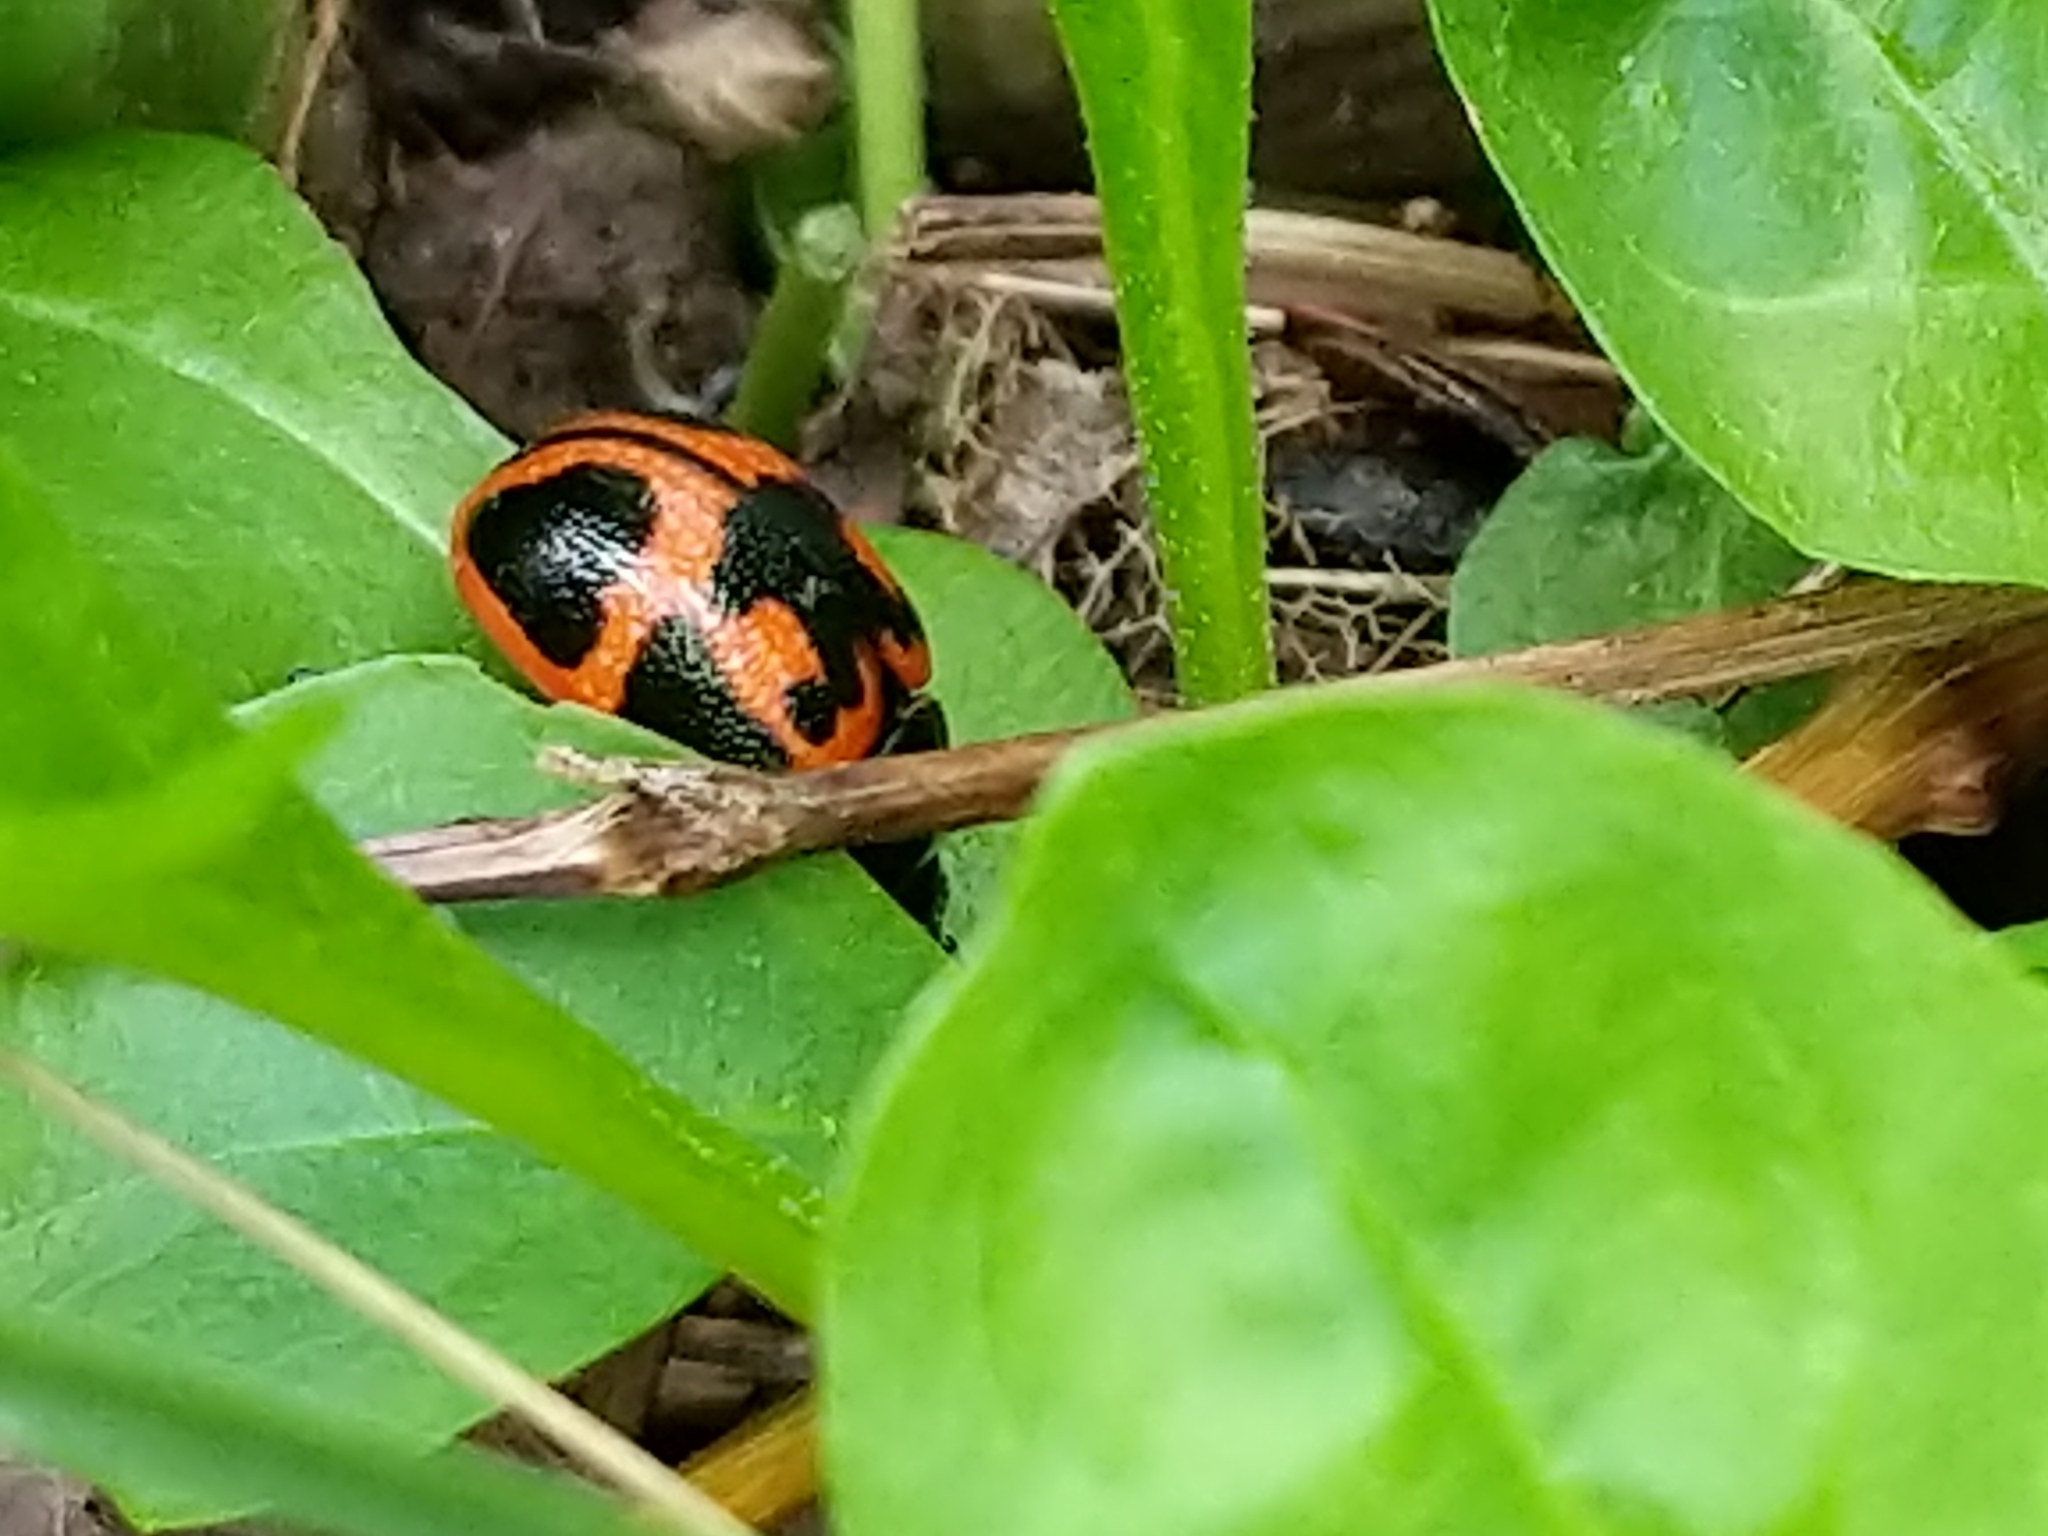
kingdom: Animalia
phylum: Arthropoda
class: Insecta
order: Coleoptera
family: Chrysomelidae
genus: Labidomera
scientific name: Labidomera clivicollis
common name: Swamp milkweed leaf beetle
